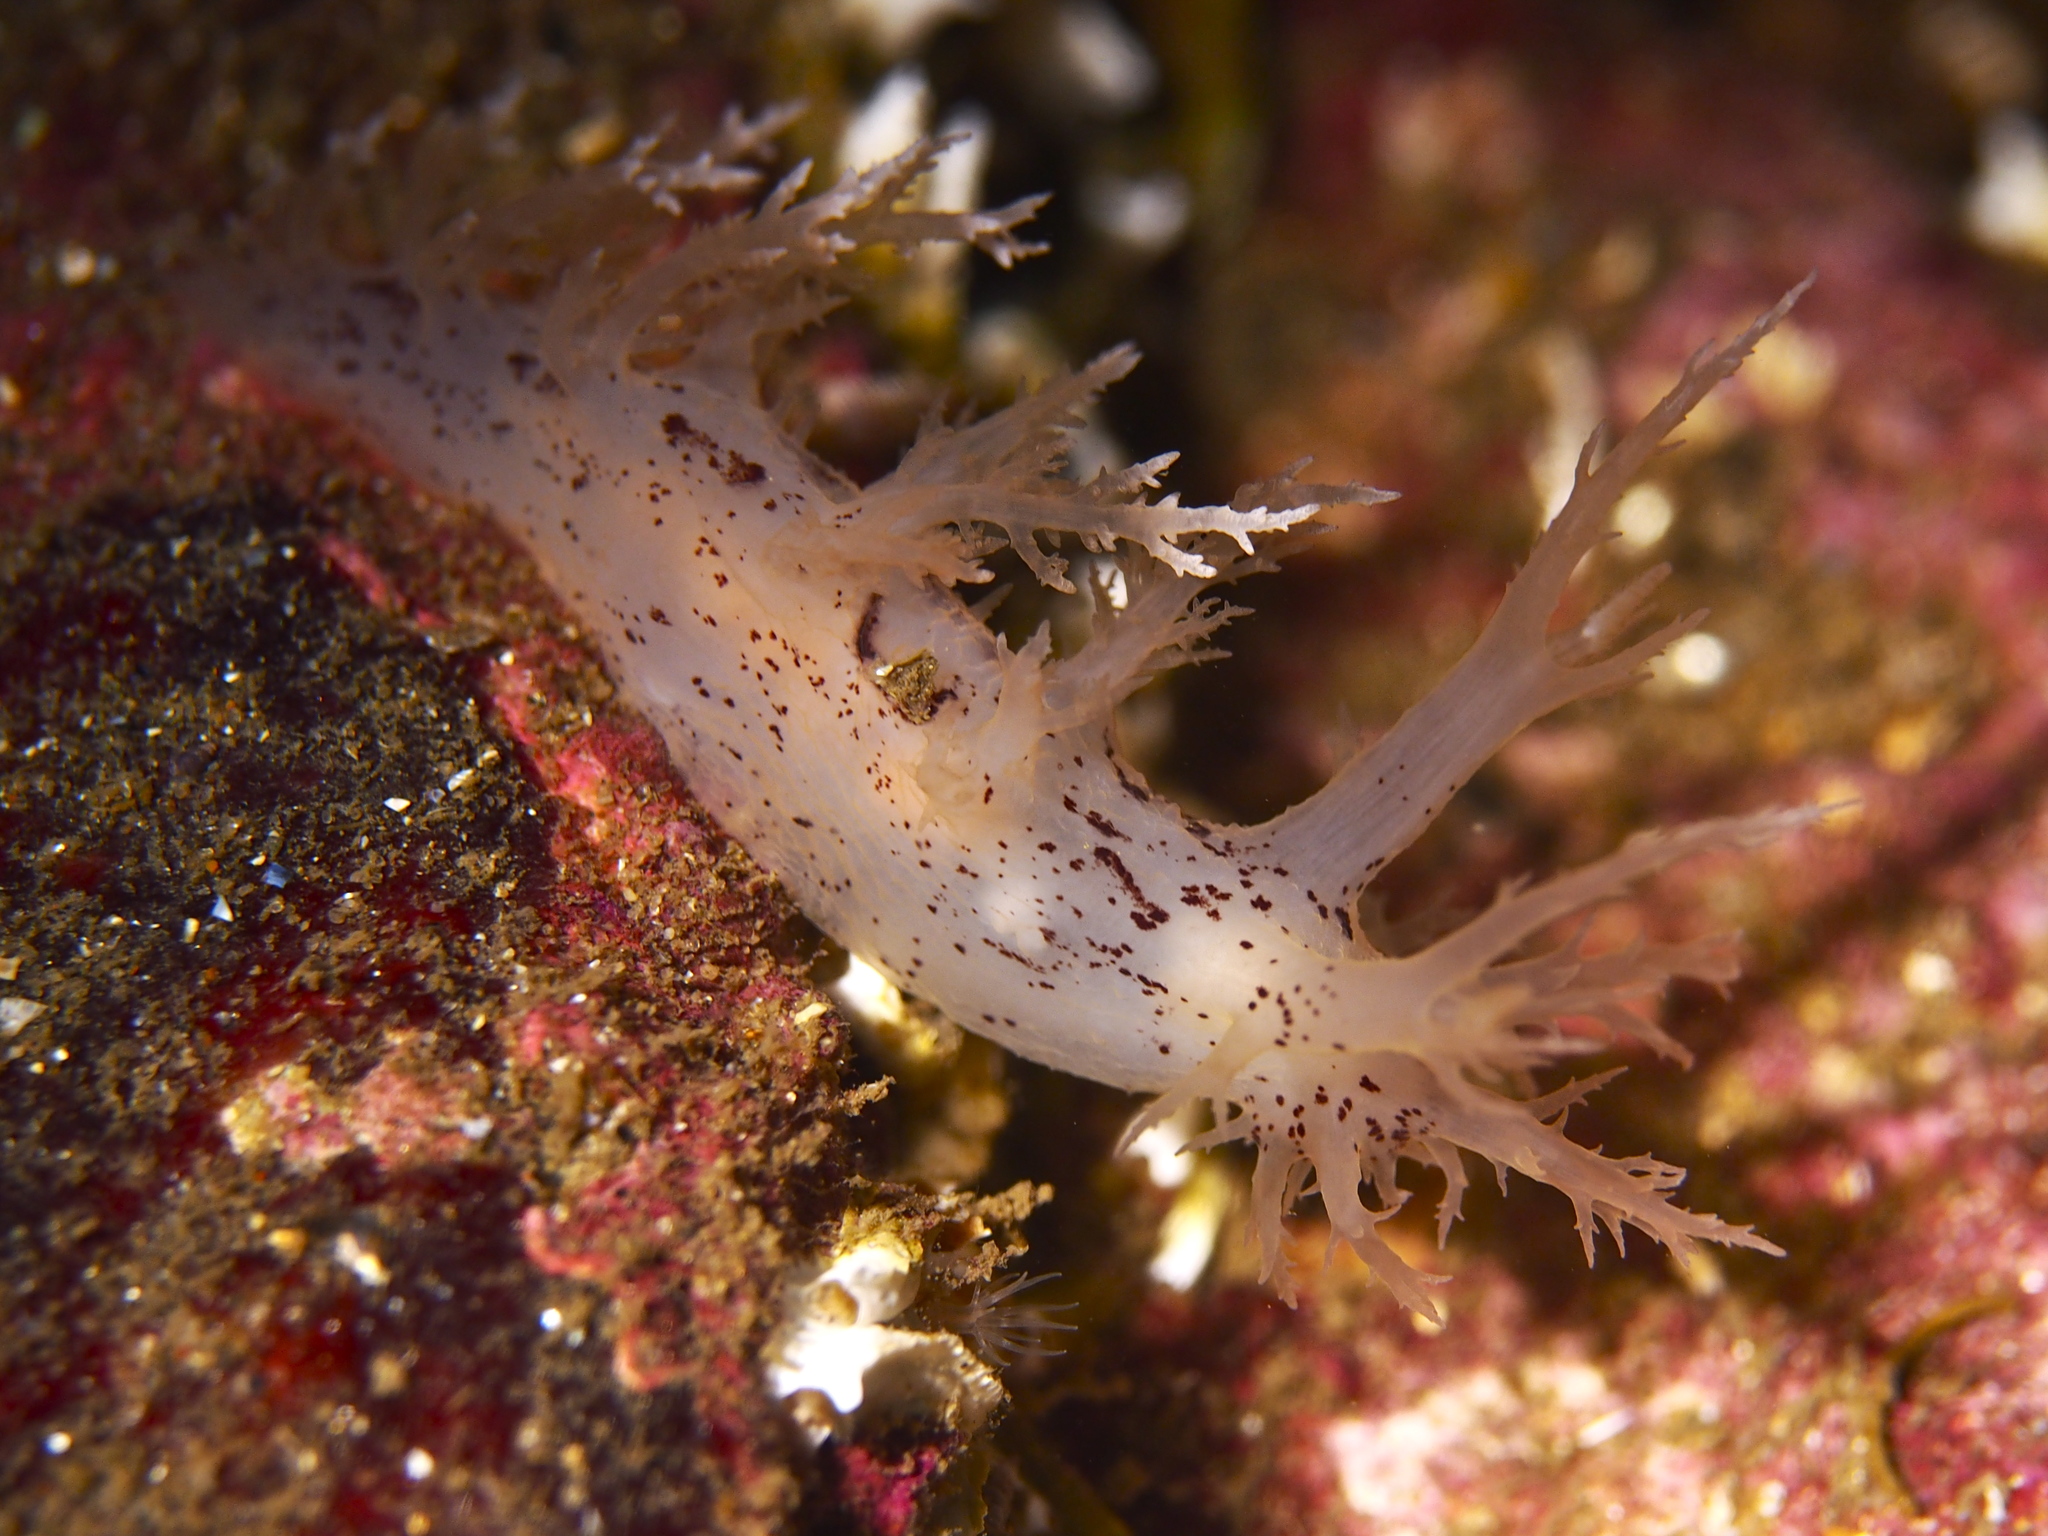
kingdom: Animalia
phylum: Mollusca
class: Gastropoda
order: Nudibranchia
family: Dendronotidae
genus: Dendronotus
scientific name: Dendronotus lacteus
